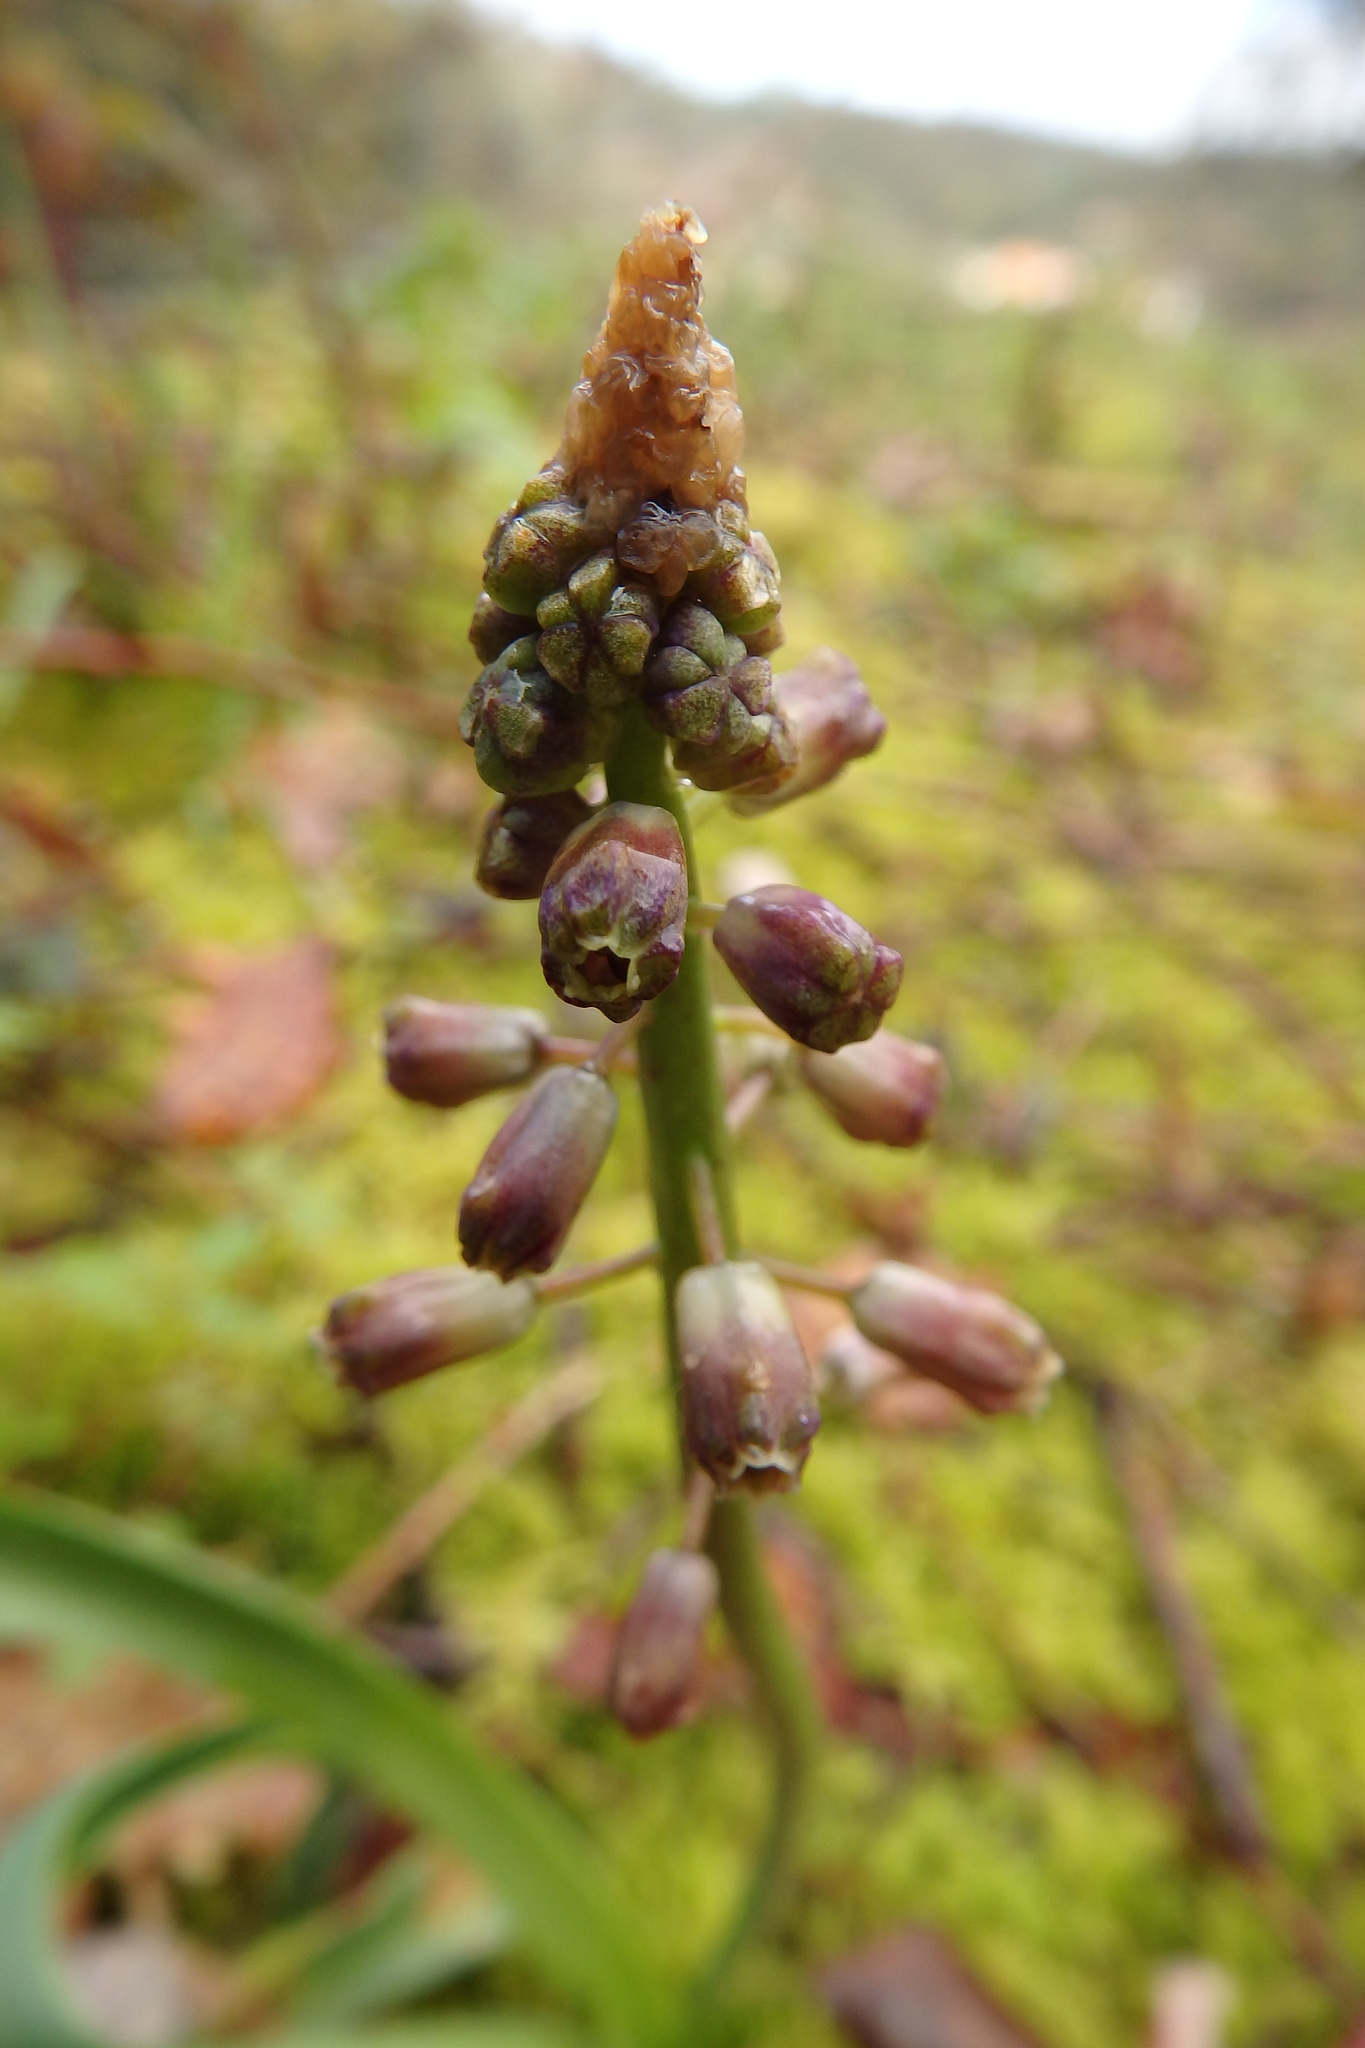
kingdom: Plantae
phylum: Tracheophyta
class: Liliopsida
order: Asparagales
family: Asparagaceae
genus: Muscari
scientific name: Muscari comosum
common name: Tassel hyacinth
